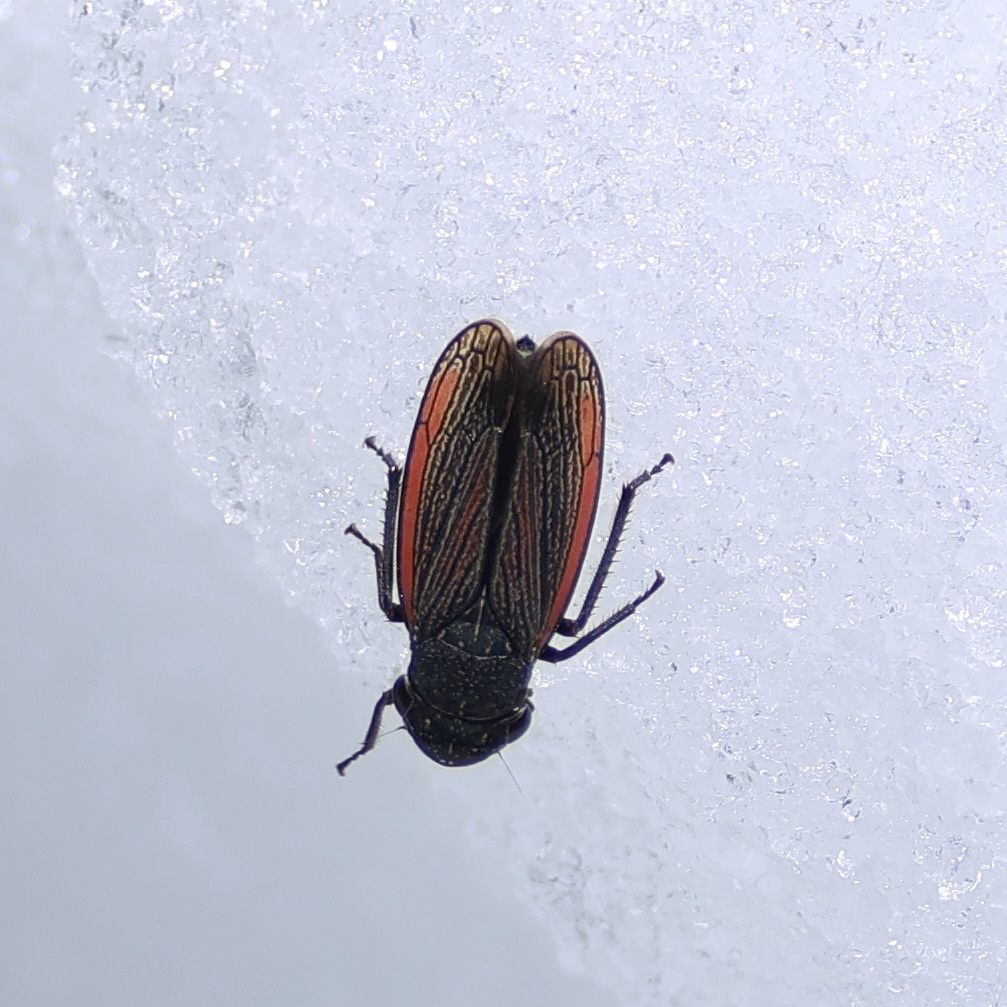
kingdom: Animalia
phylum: Arthropoda
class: Insecta
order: Hemiptera
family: Cicadellidae
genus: Cuerna
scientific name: Cuerna striata
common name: Striped leafhopper
